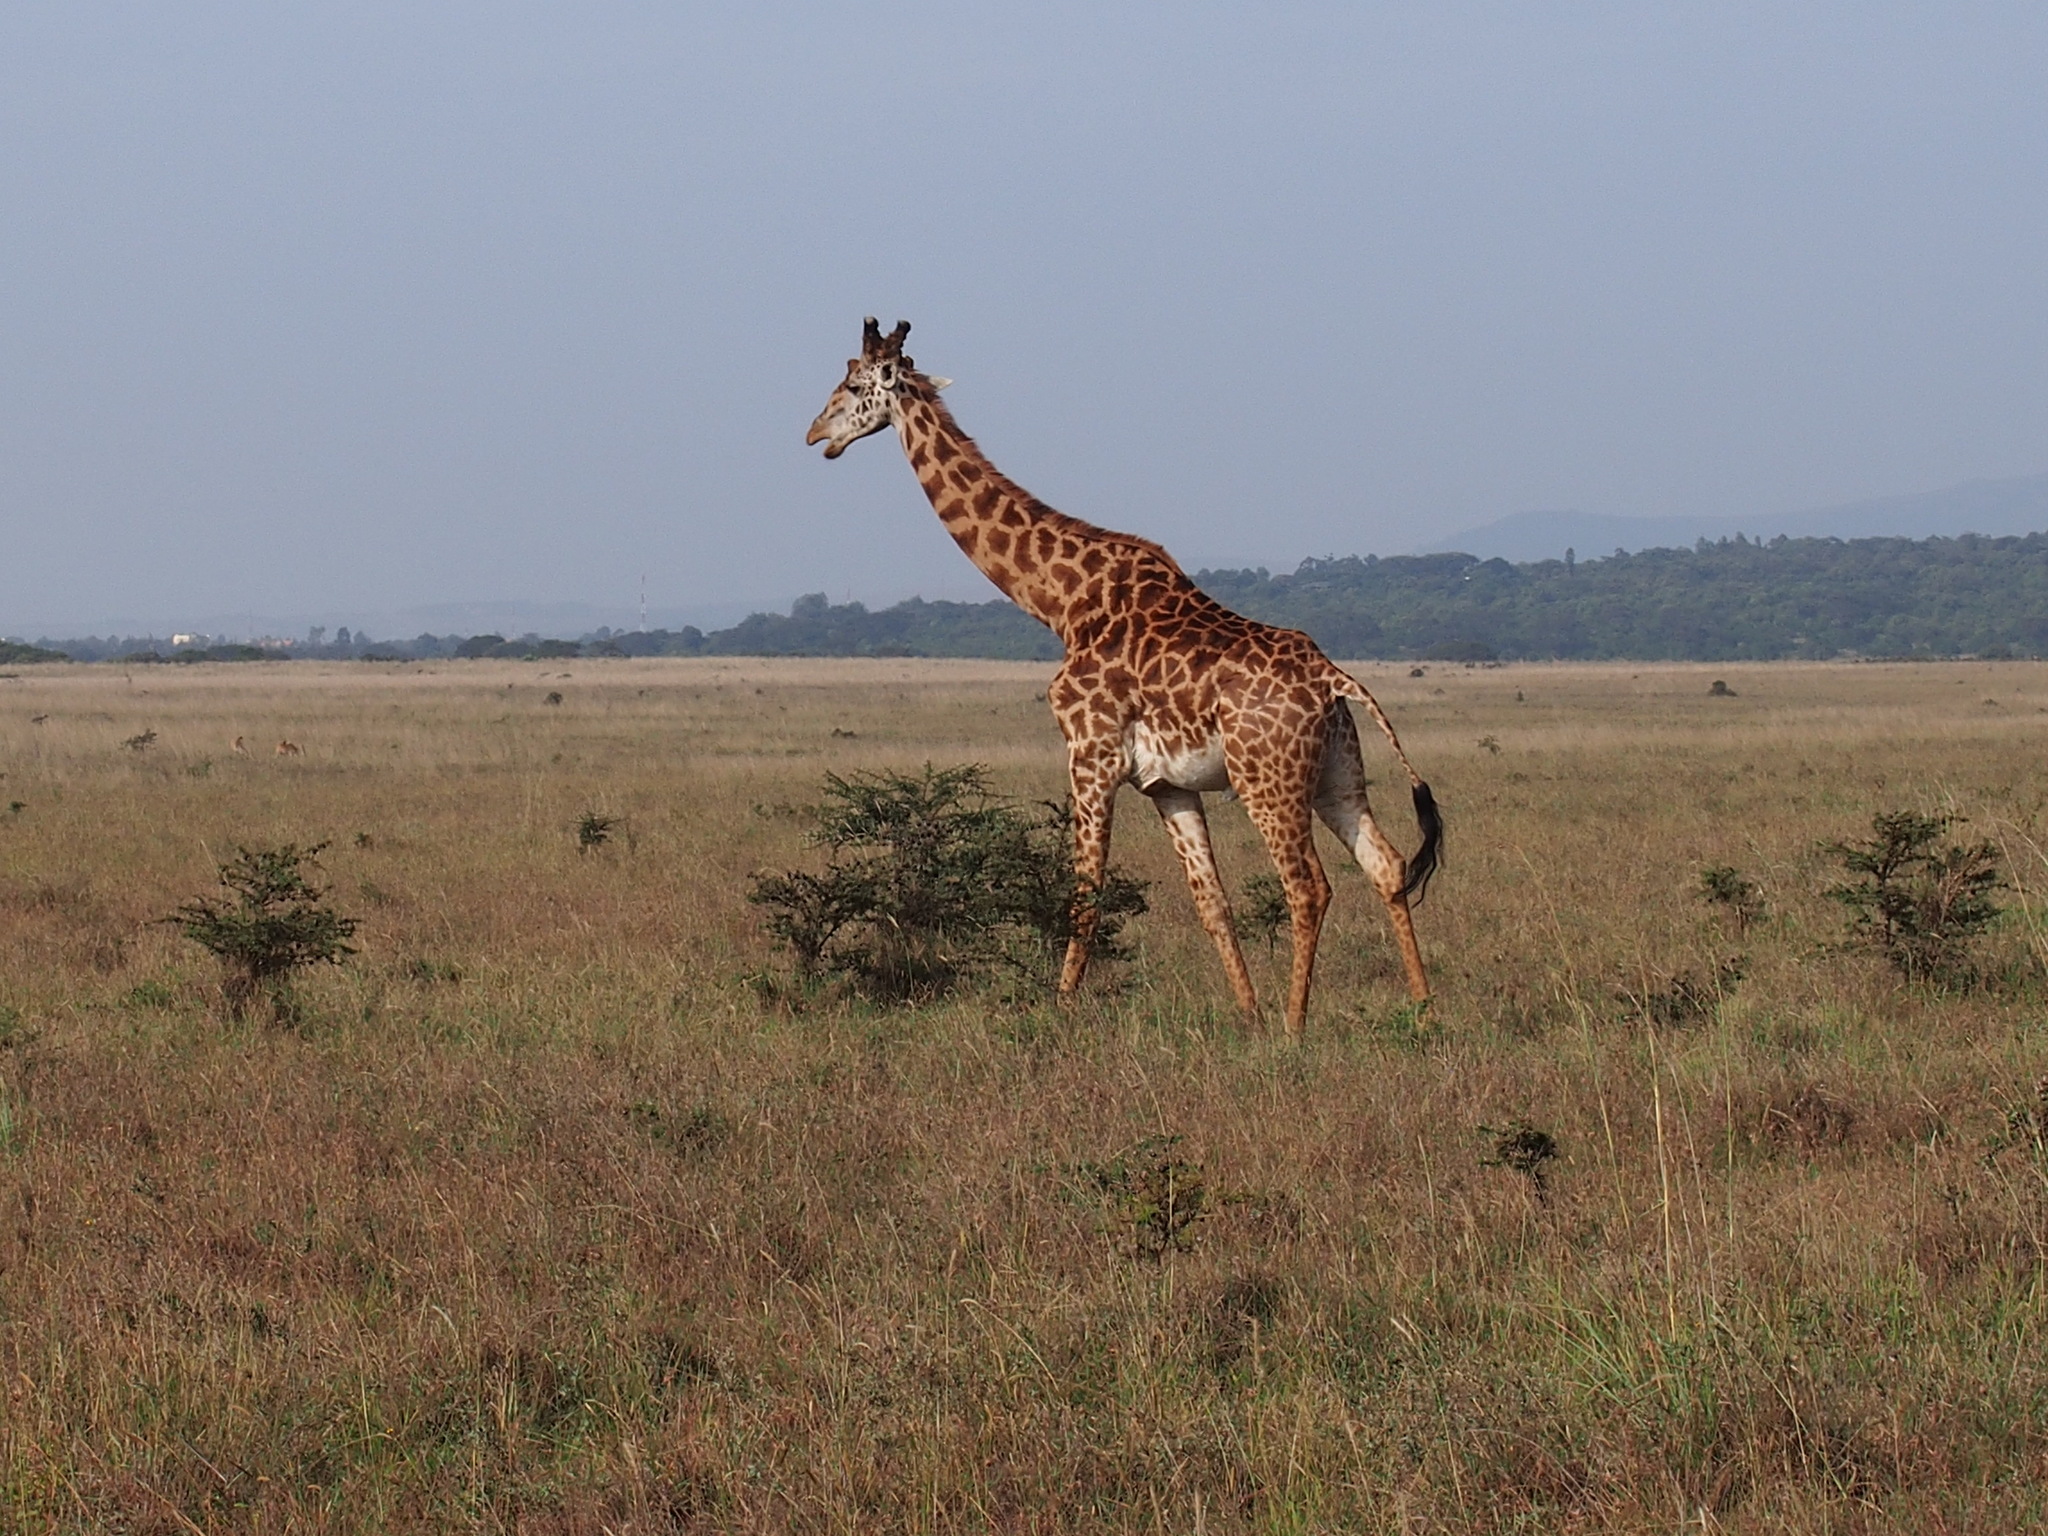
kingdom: Animalia
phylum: Chordata
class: Mammalia
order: Artiodactyla
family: Giraffidae
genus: Giraffa
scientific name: Giraffa tippelskirchi
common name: Masai giraffe
